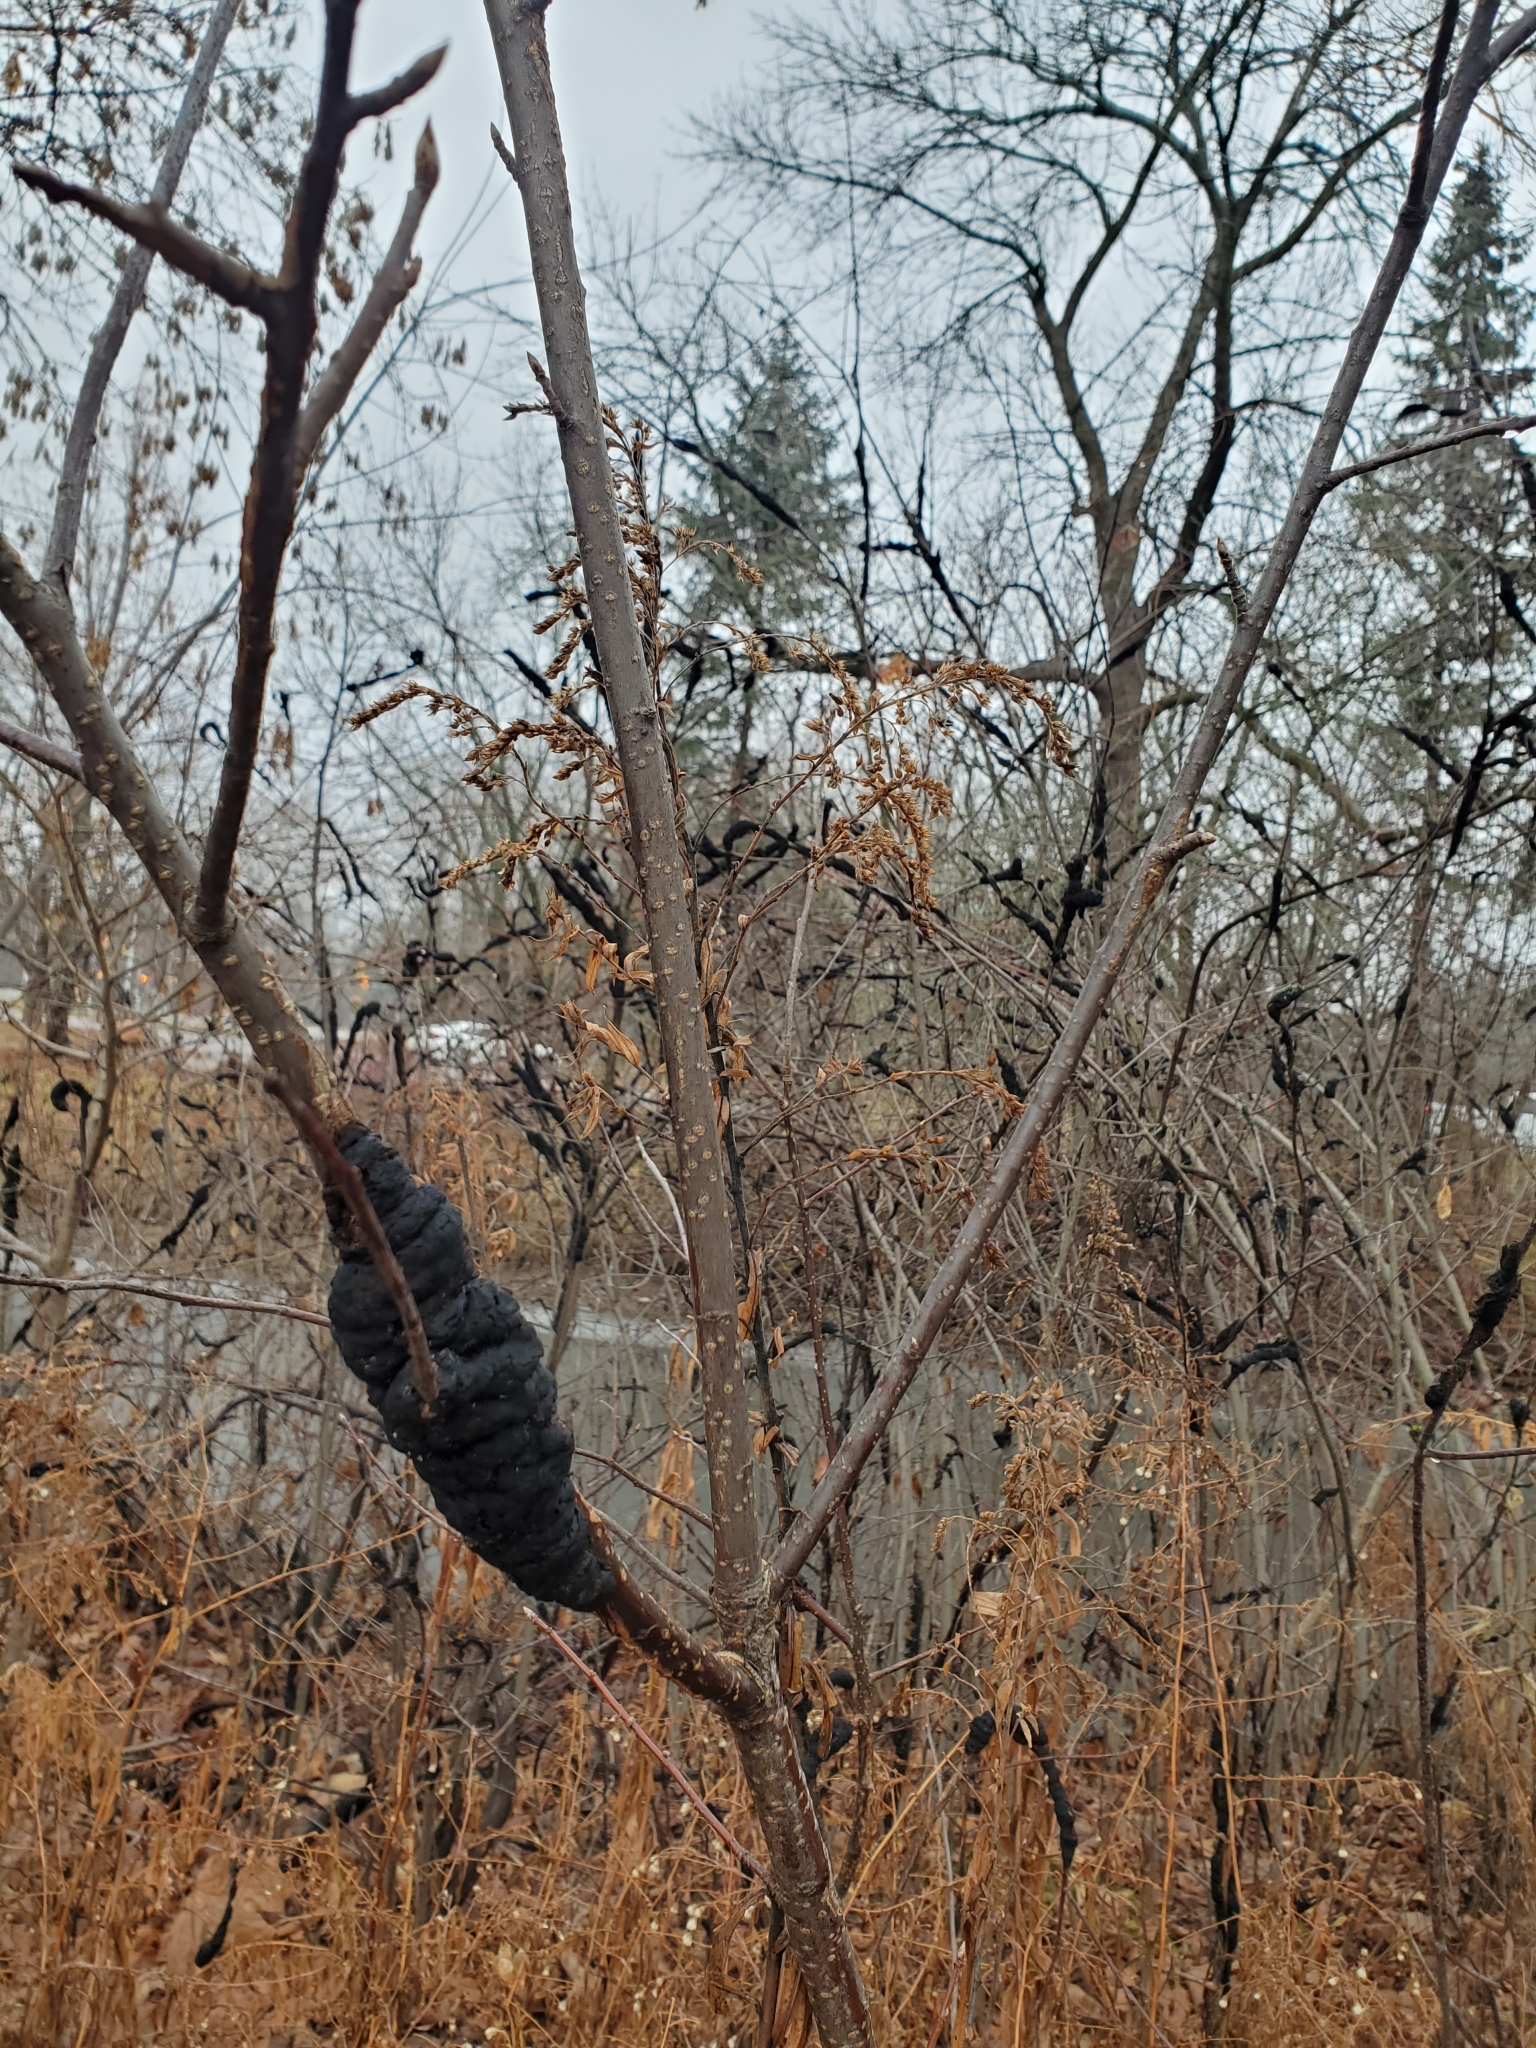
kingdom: Fungi
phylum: Ascomycota
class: Dothideomycetes
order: Venturiales
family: Venturiaceae
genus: Apiosporina
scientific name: Apiosporina morbosa
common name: Black knot
